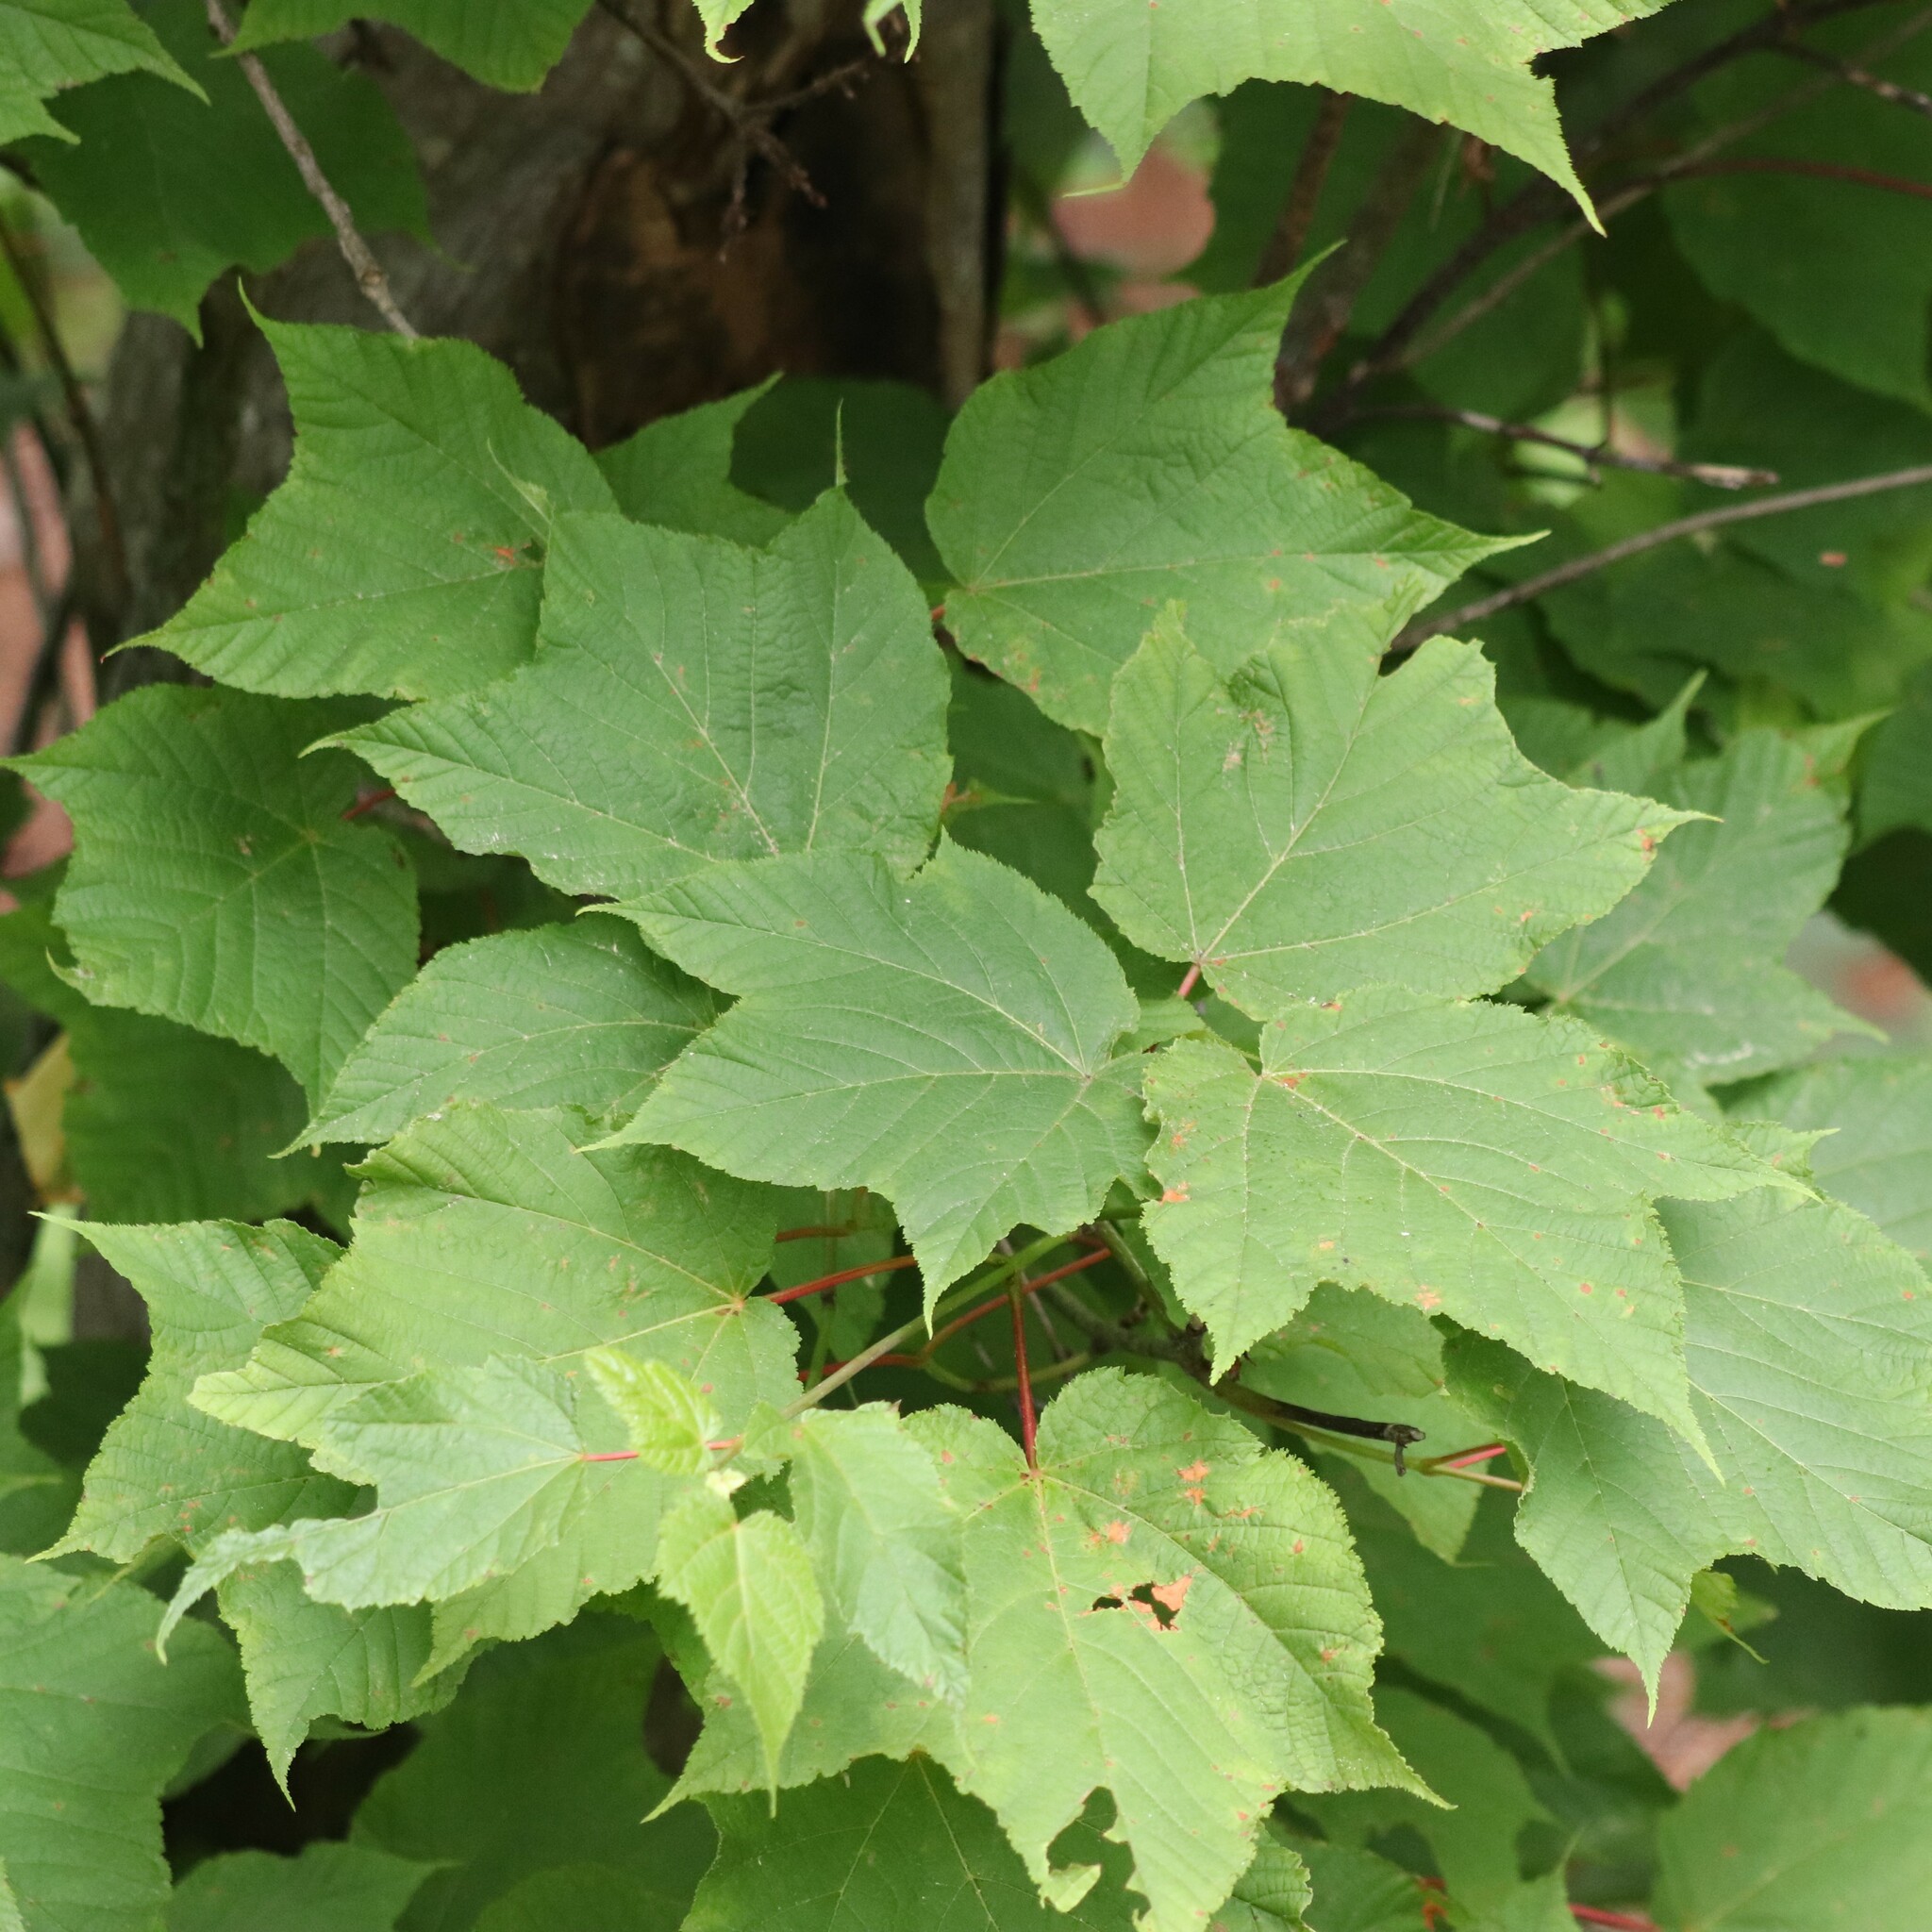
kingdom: Plantae
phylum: Tracheophyta
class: Magnoliopsida
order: Sapindales
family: Sapindaceae
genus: Acer
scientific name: Acer pensylvanicum
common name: Moosewood
